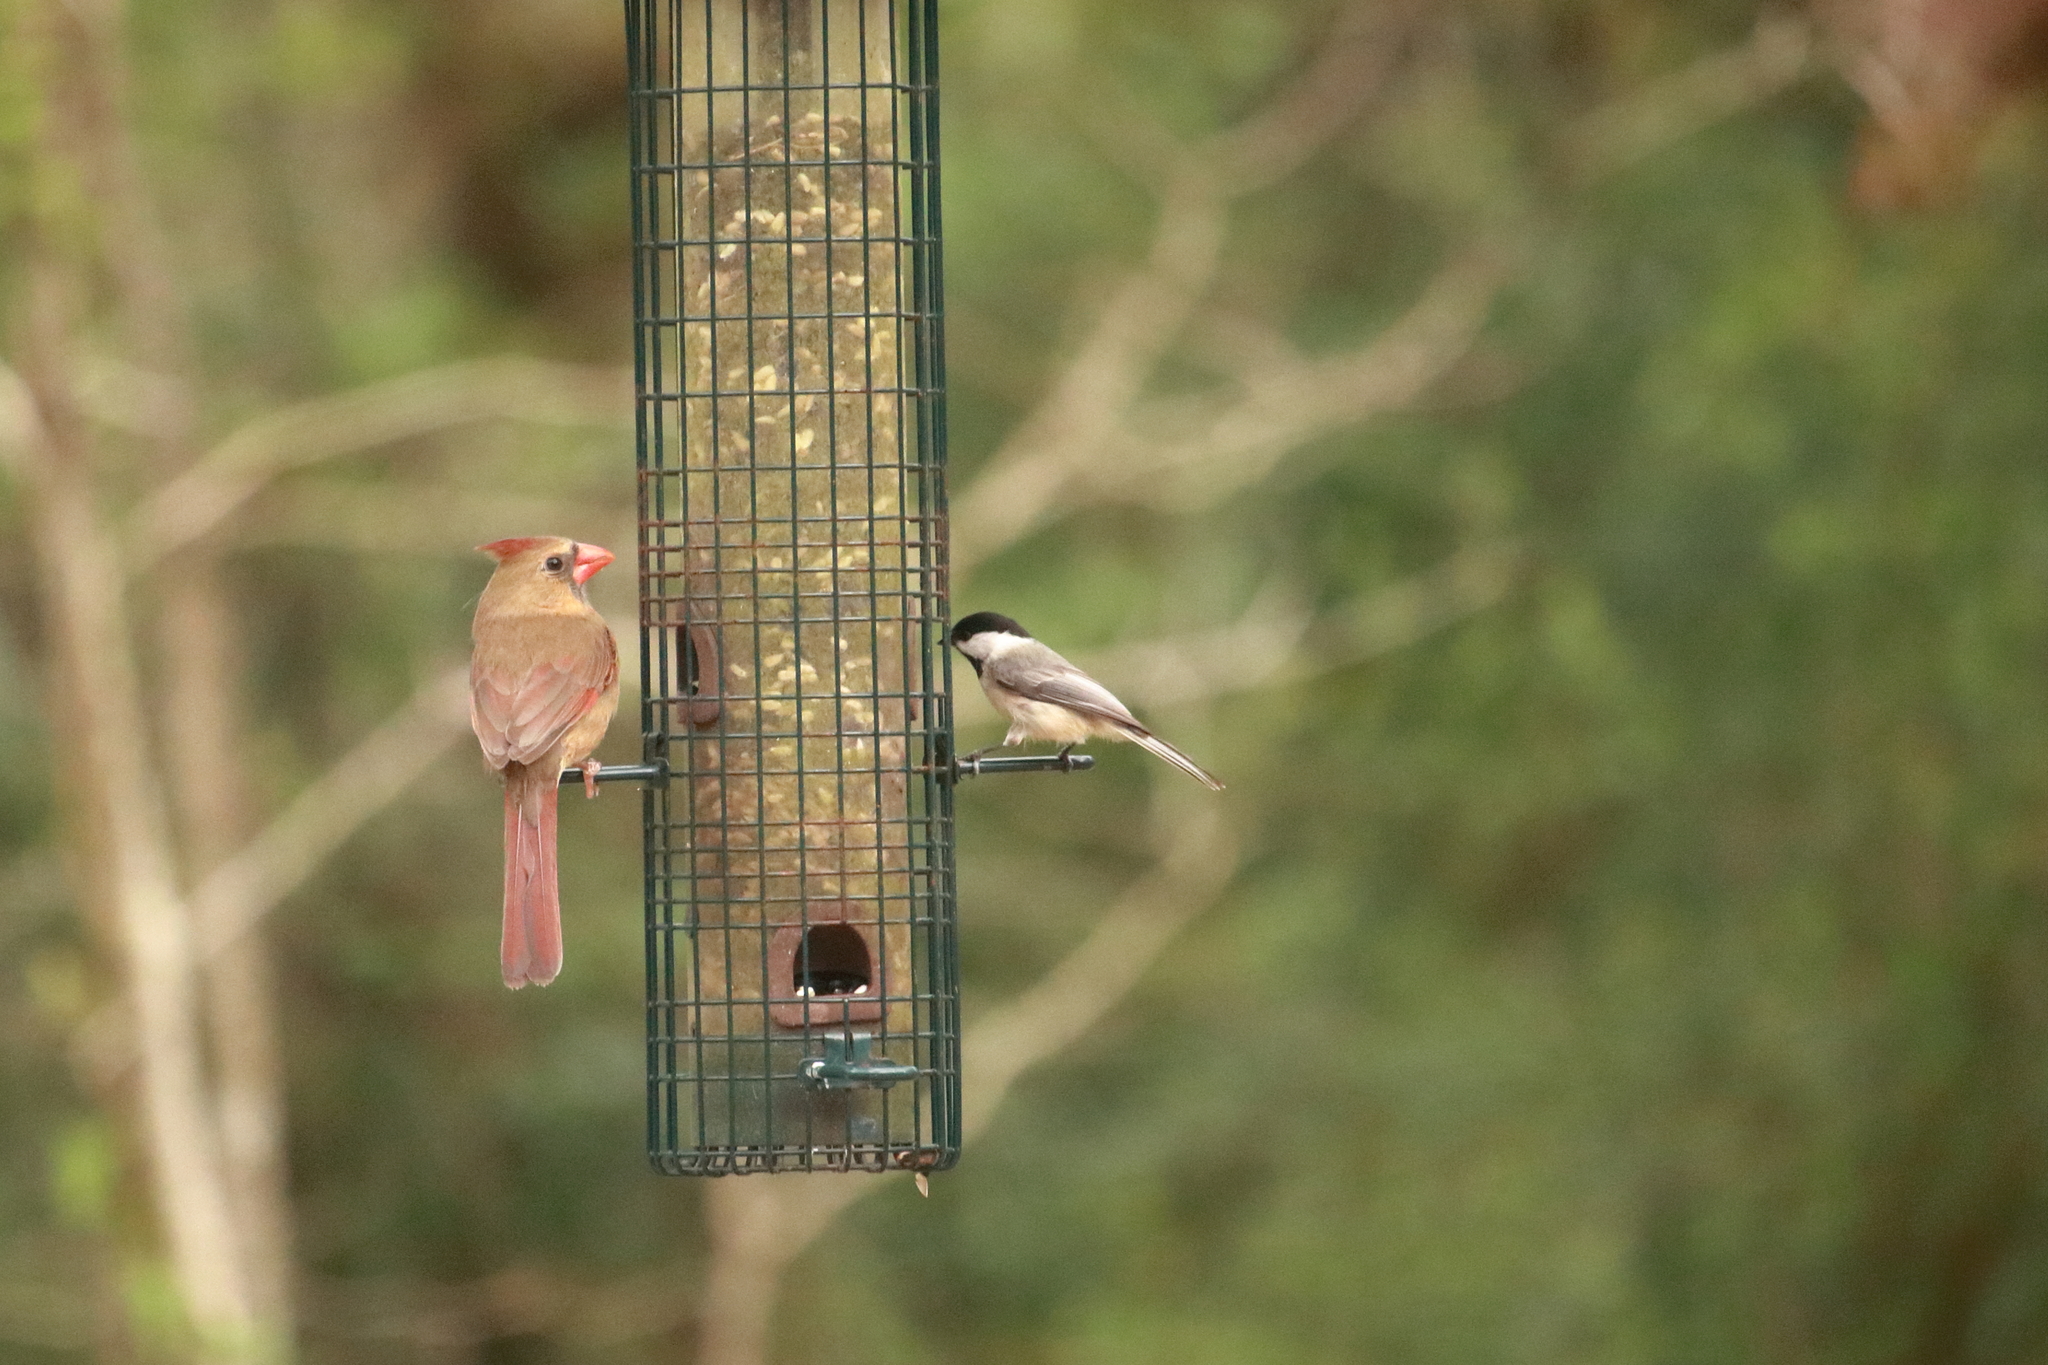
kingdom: Animalia
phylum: Chordata
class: Aves
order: Passeriformes
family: Paridae
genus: Poecile
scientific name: Poecile carolinensis
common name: Carolina chickadee
